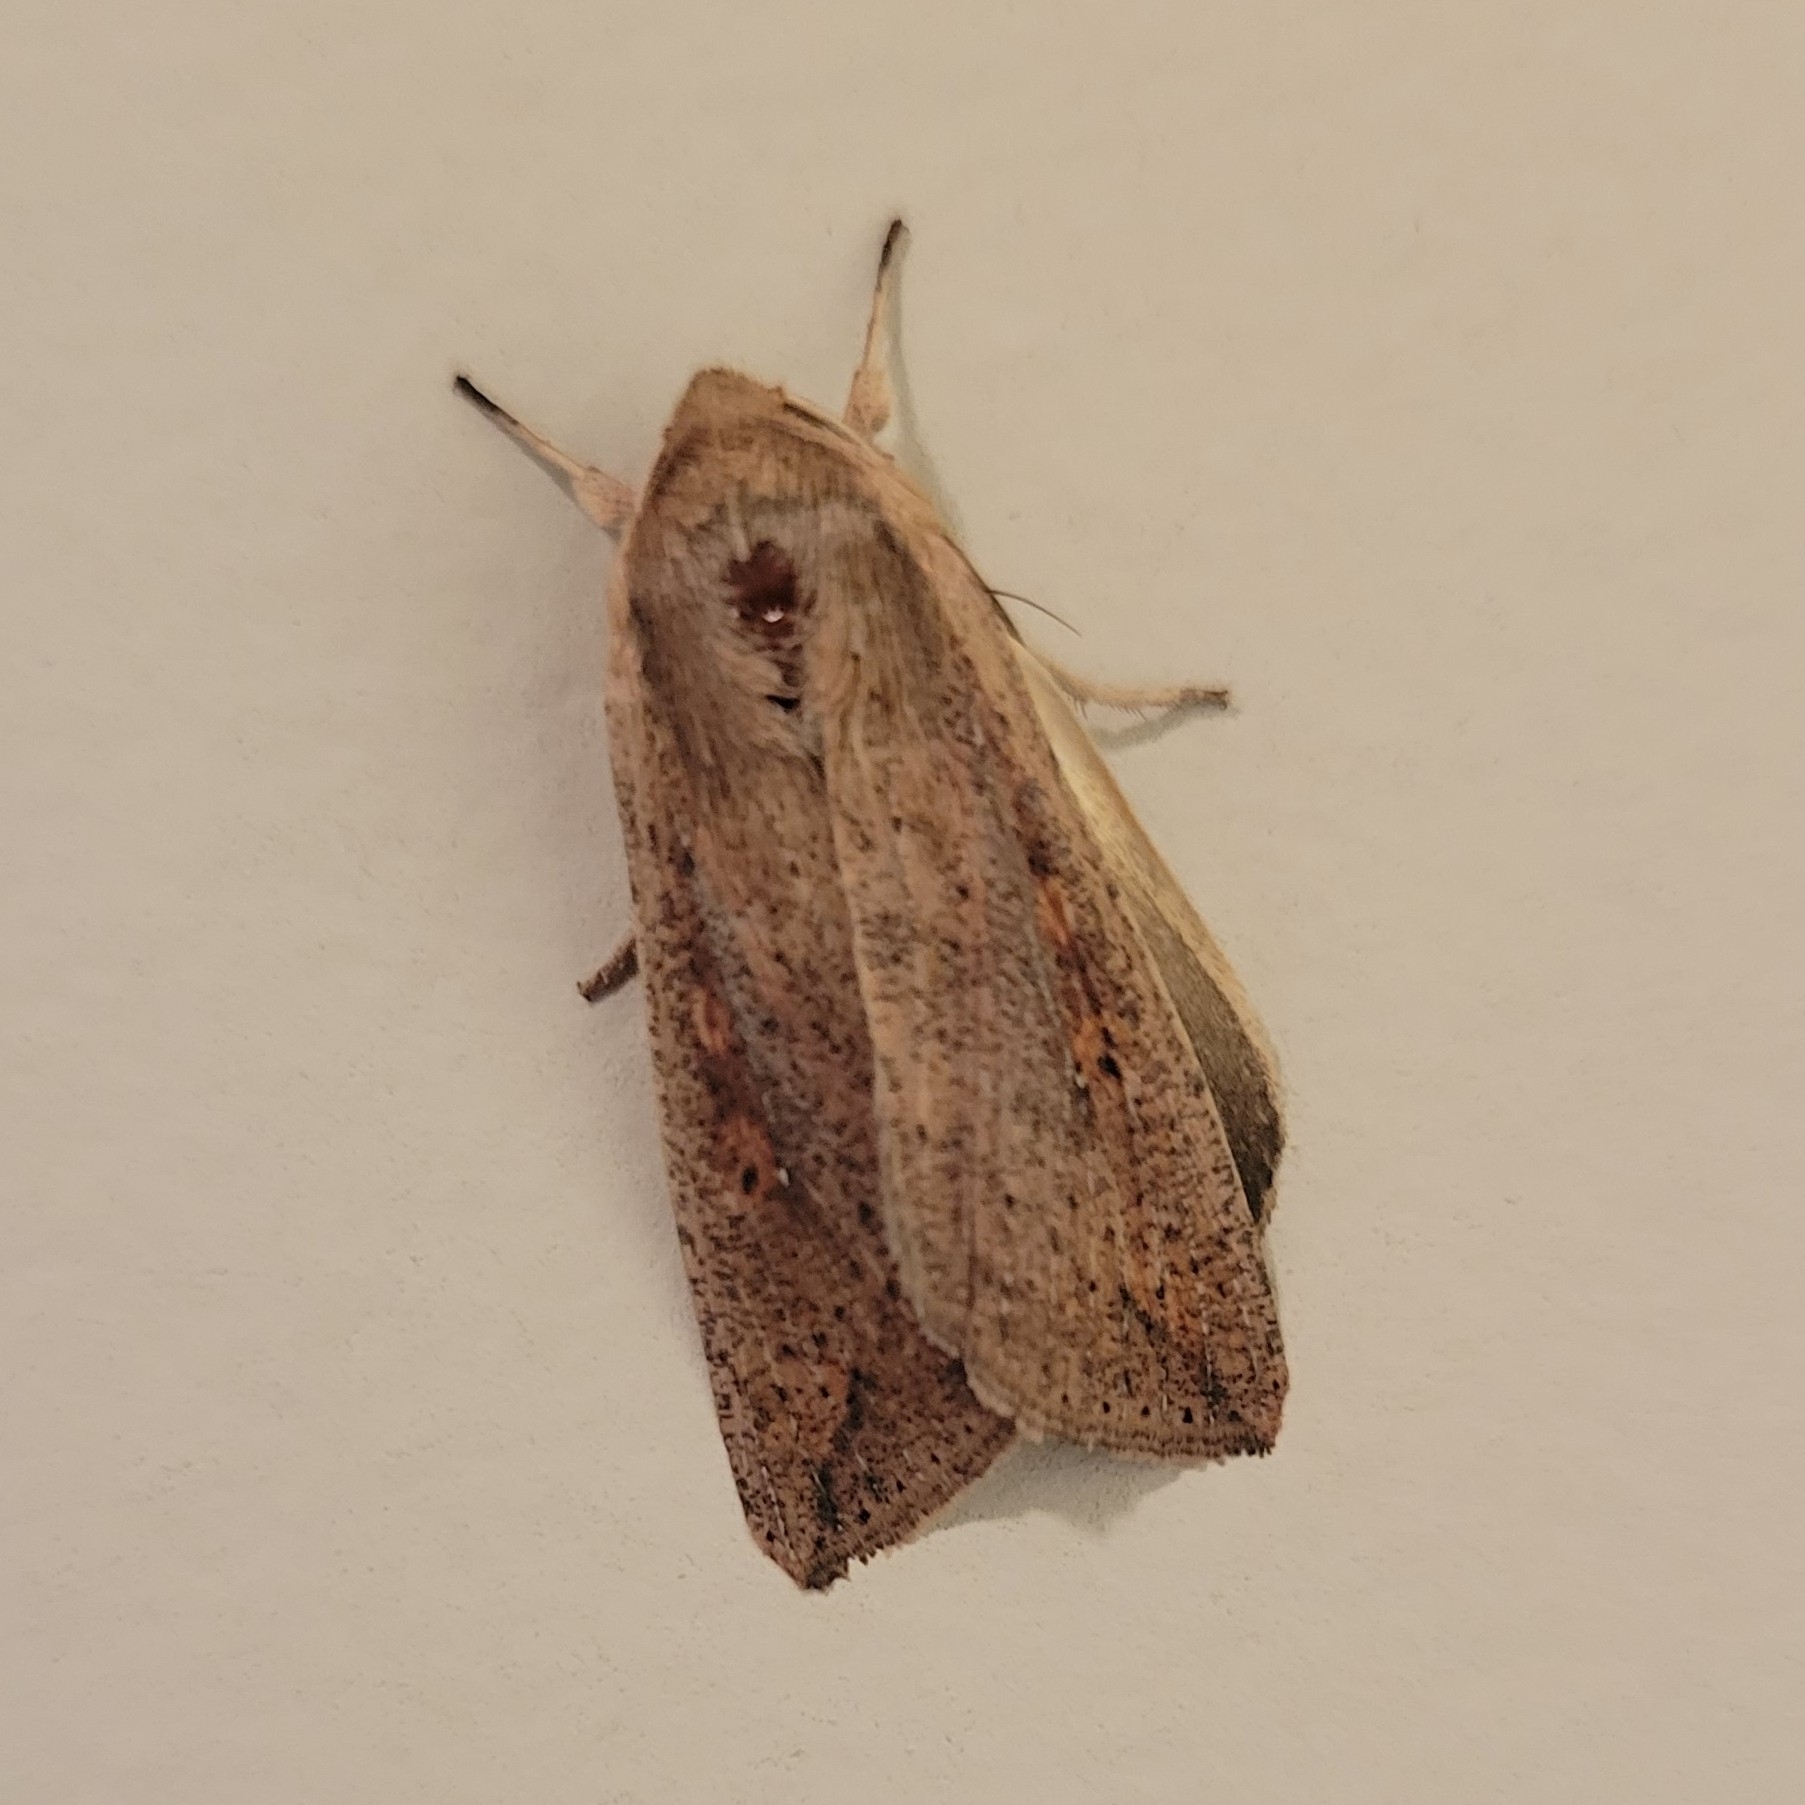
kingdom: Animalia
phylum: Arthropoda
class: Insecta
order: Lepidoptera
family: Noctuidae
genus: Mythimna
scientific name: Mythimna unipuncta
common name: White-speck
